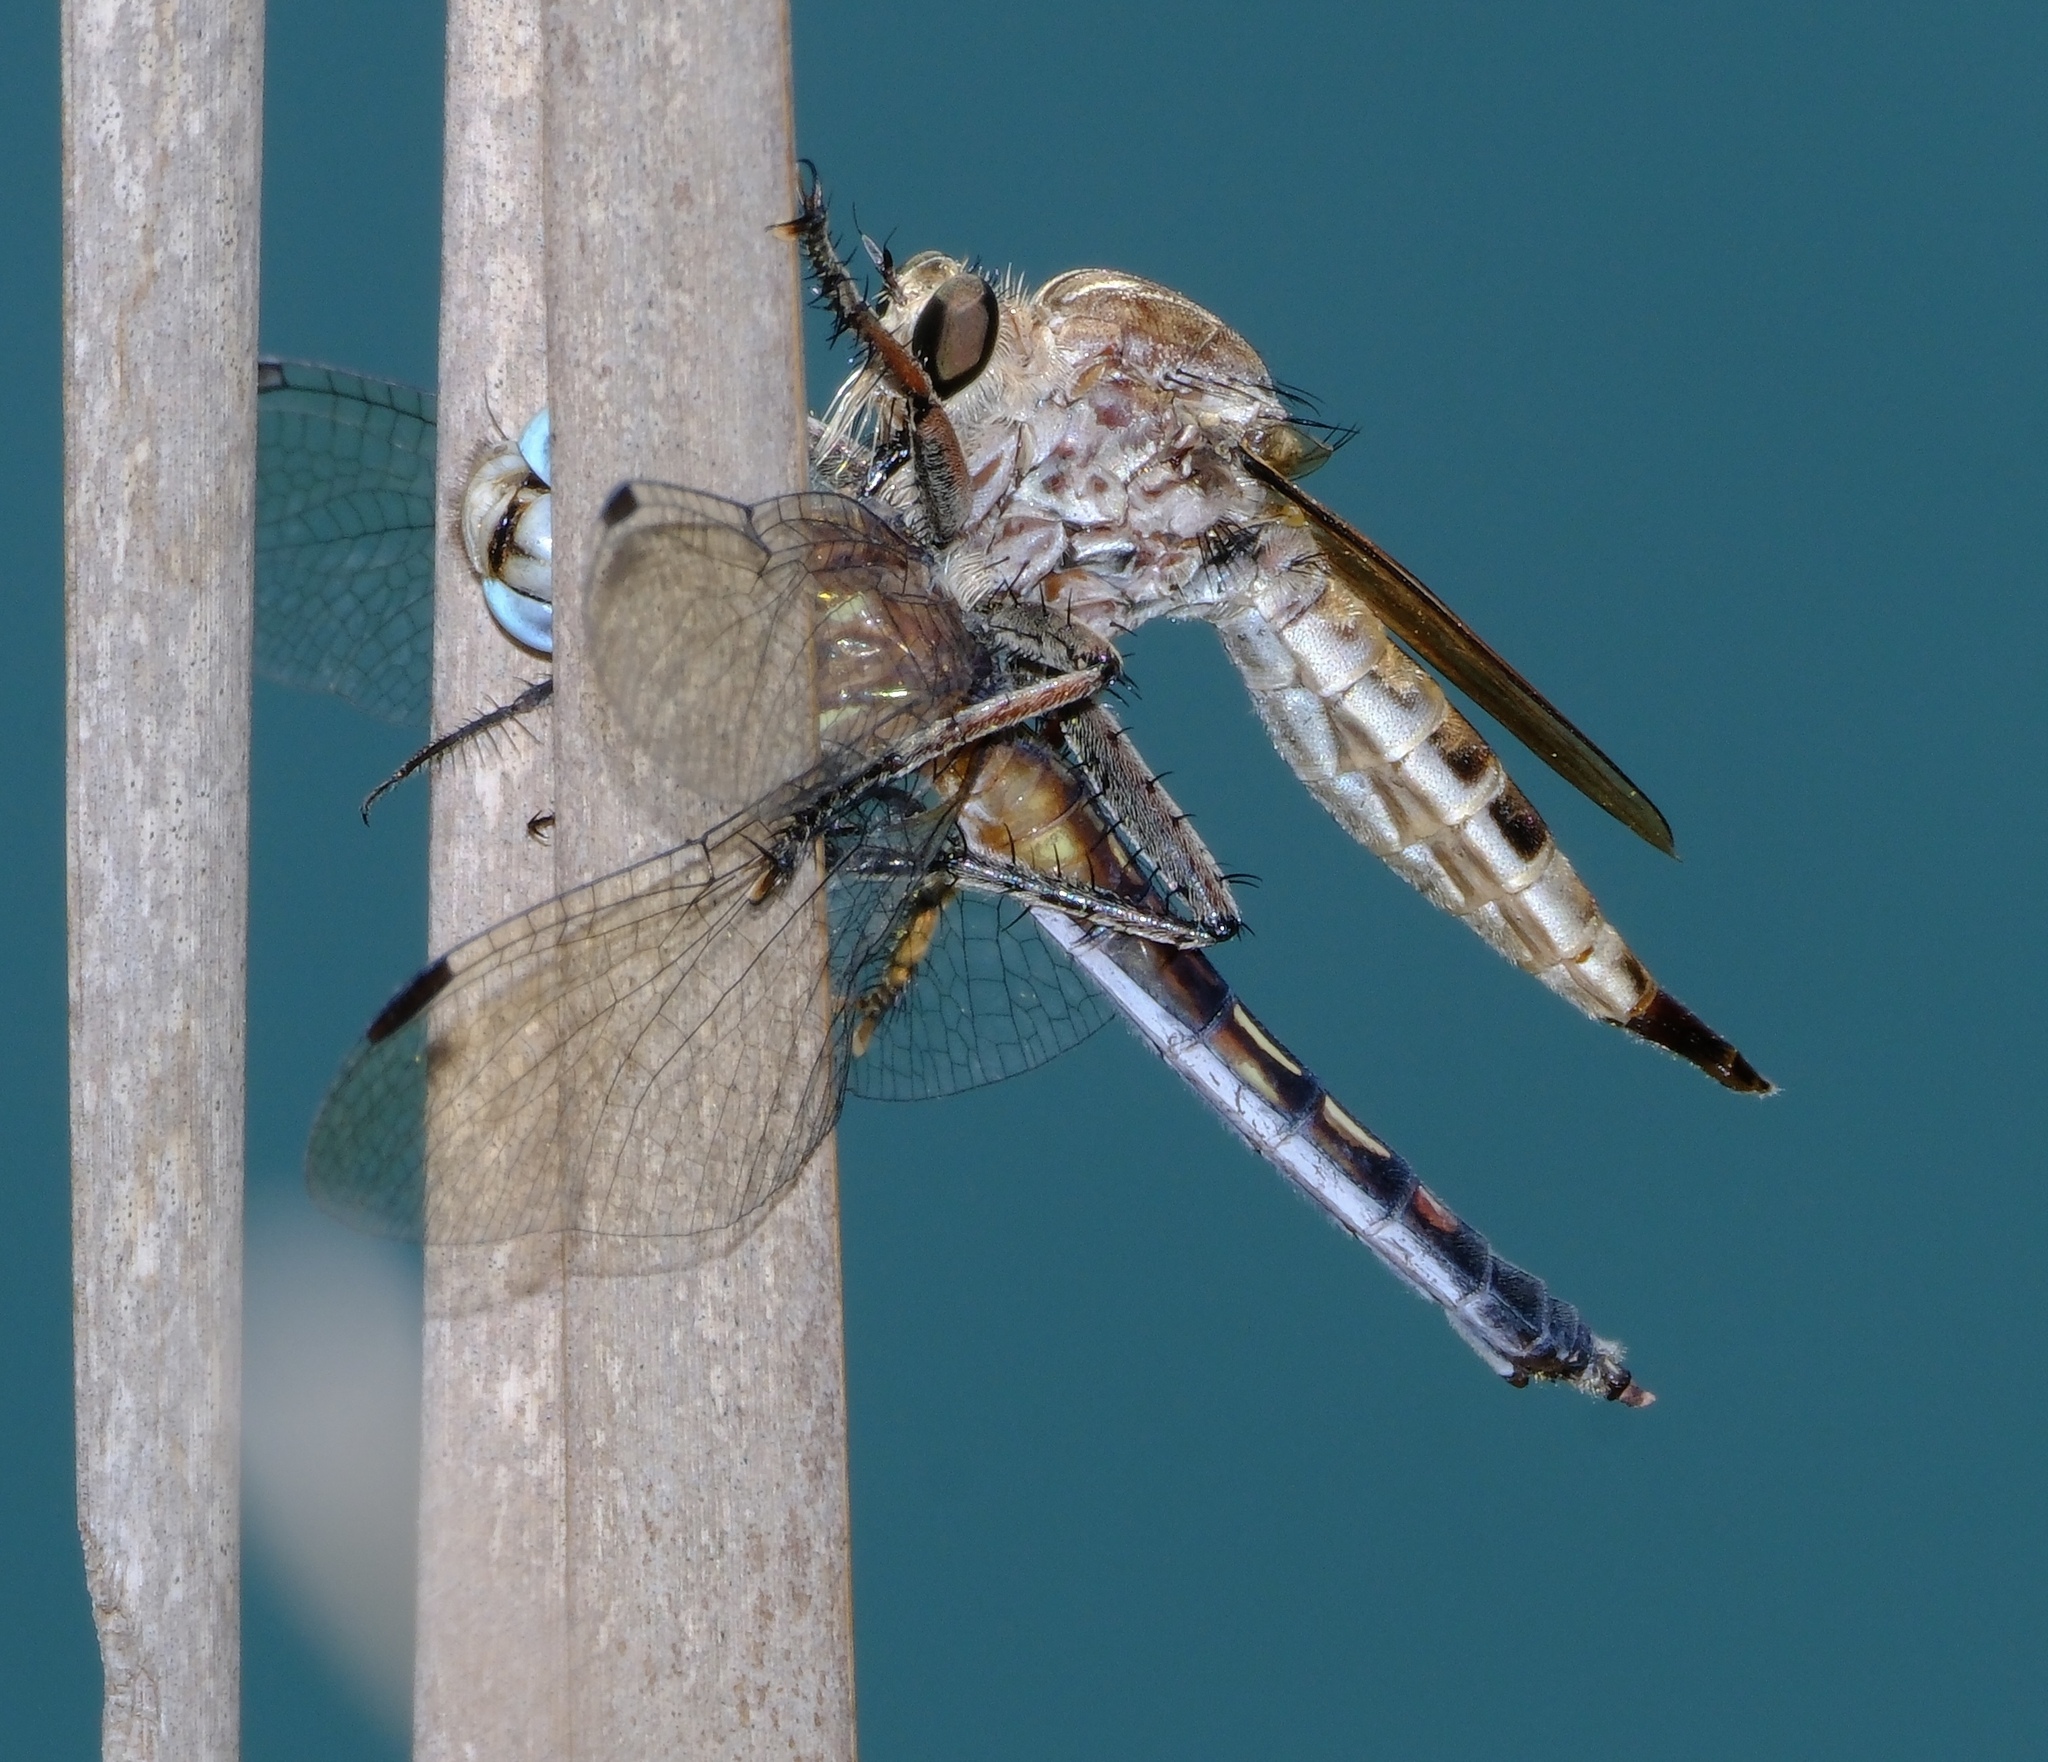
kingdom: Animalia
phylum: Arthropoda
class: Insecta
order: Diptera
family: Asilidae
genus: Triorla
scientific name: Triorla interrupta
